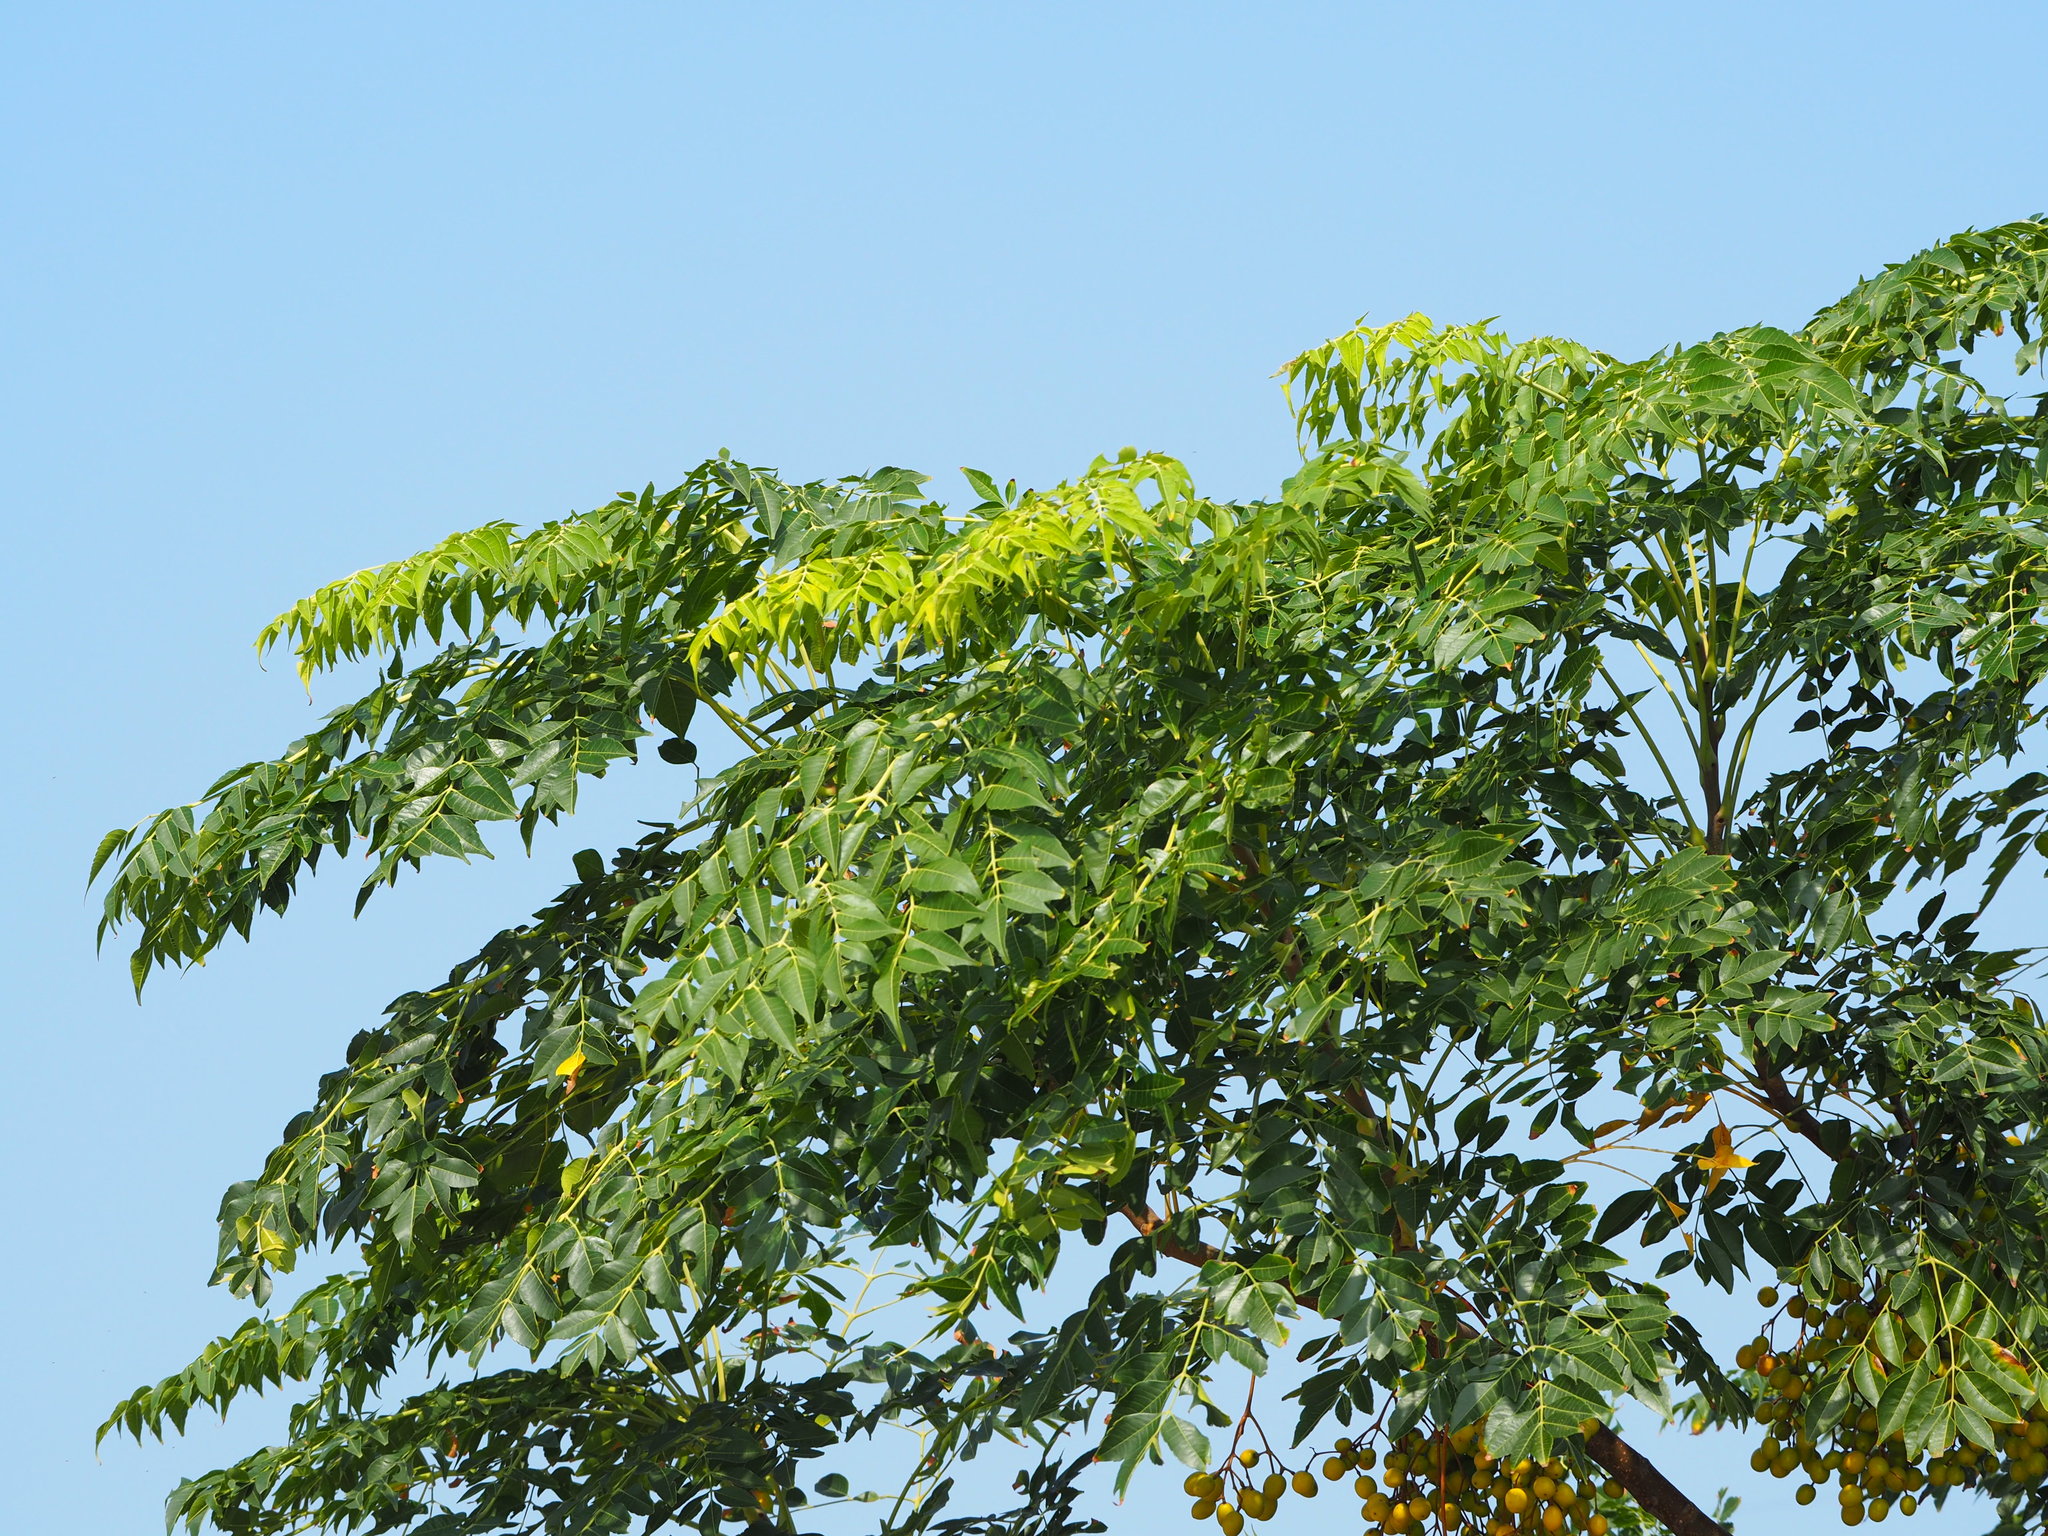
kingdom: Plantae
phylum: Tracheophyta
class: Magnoliopsida
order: Sapindales
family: Meliaceae
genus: Melia
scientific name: Melia azedarach
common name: Chinaberrytree
